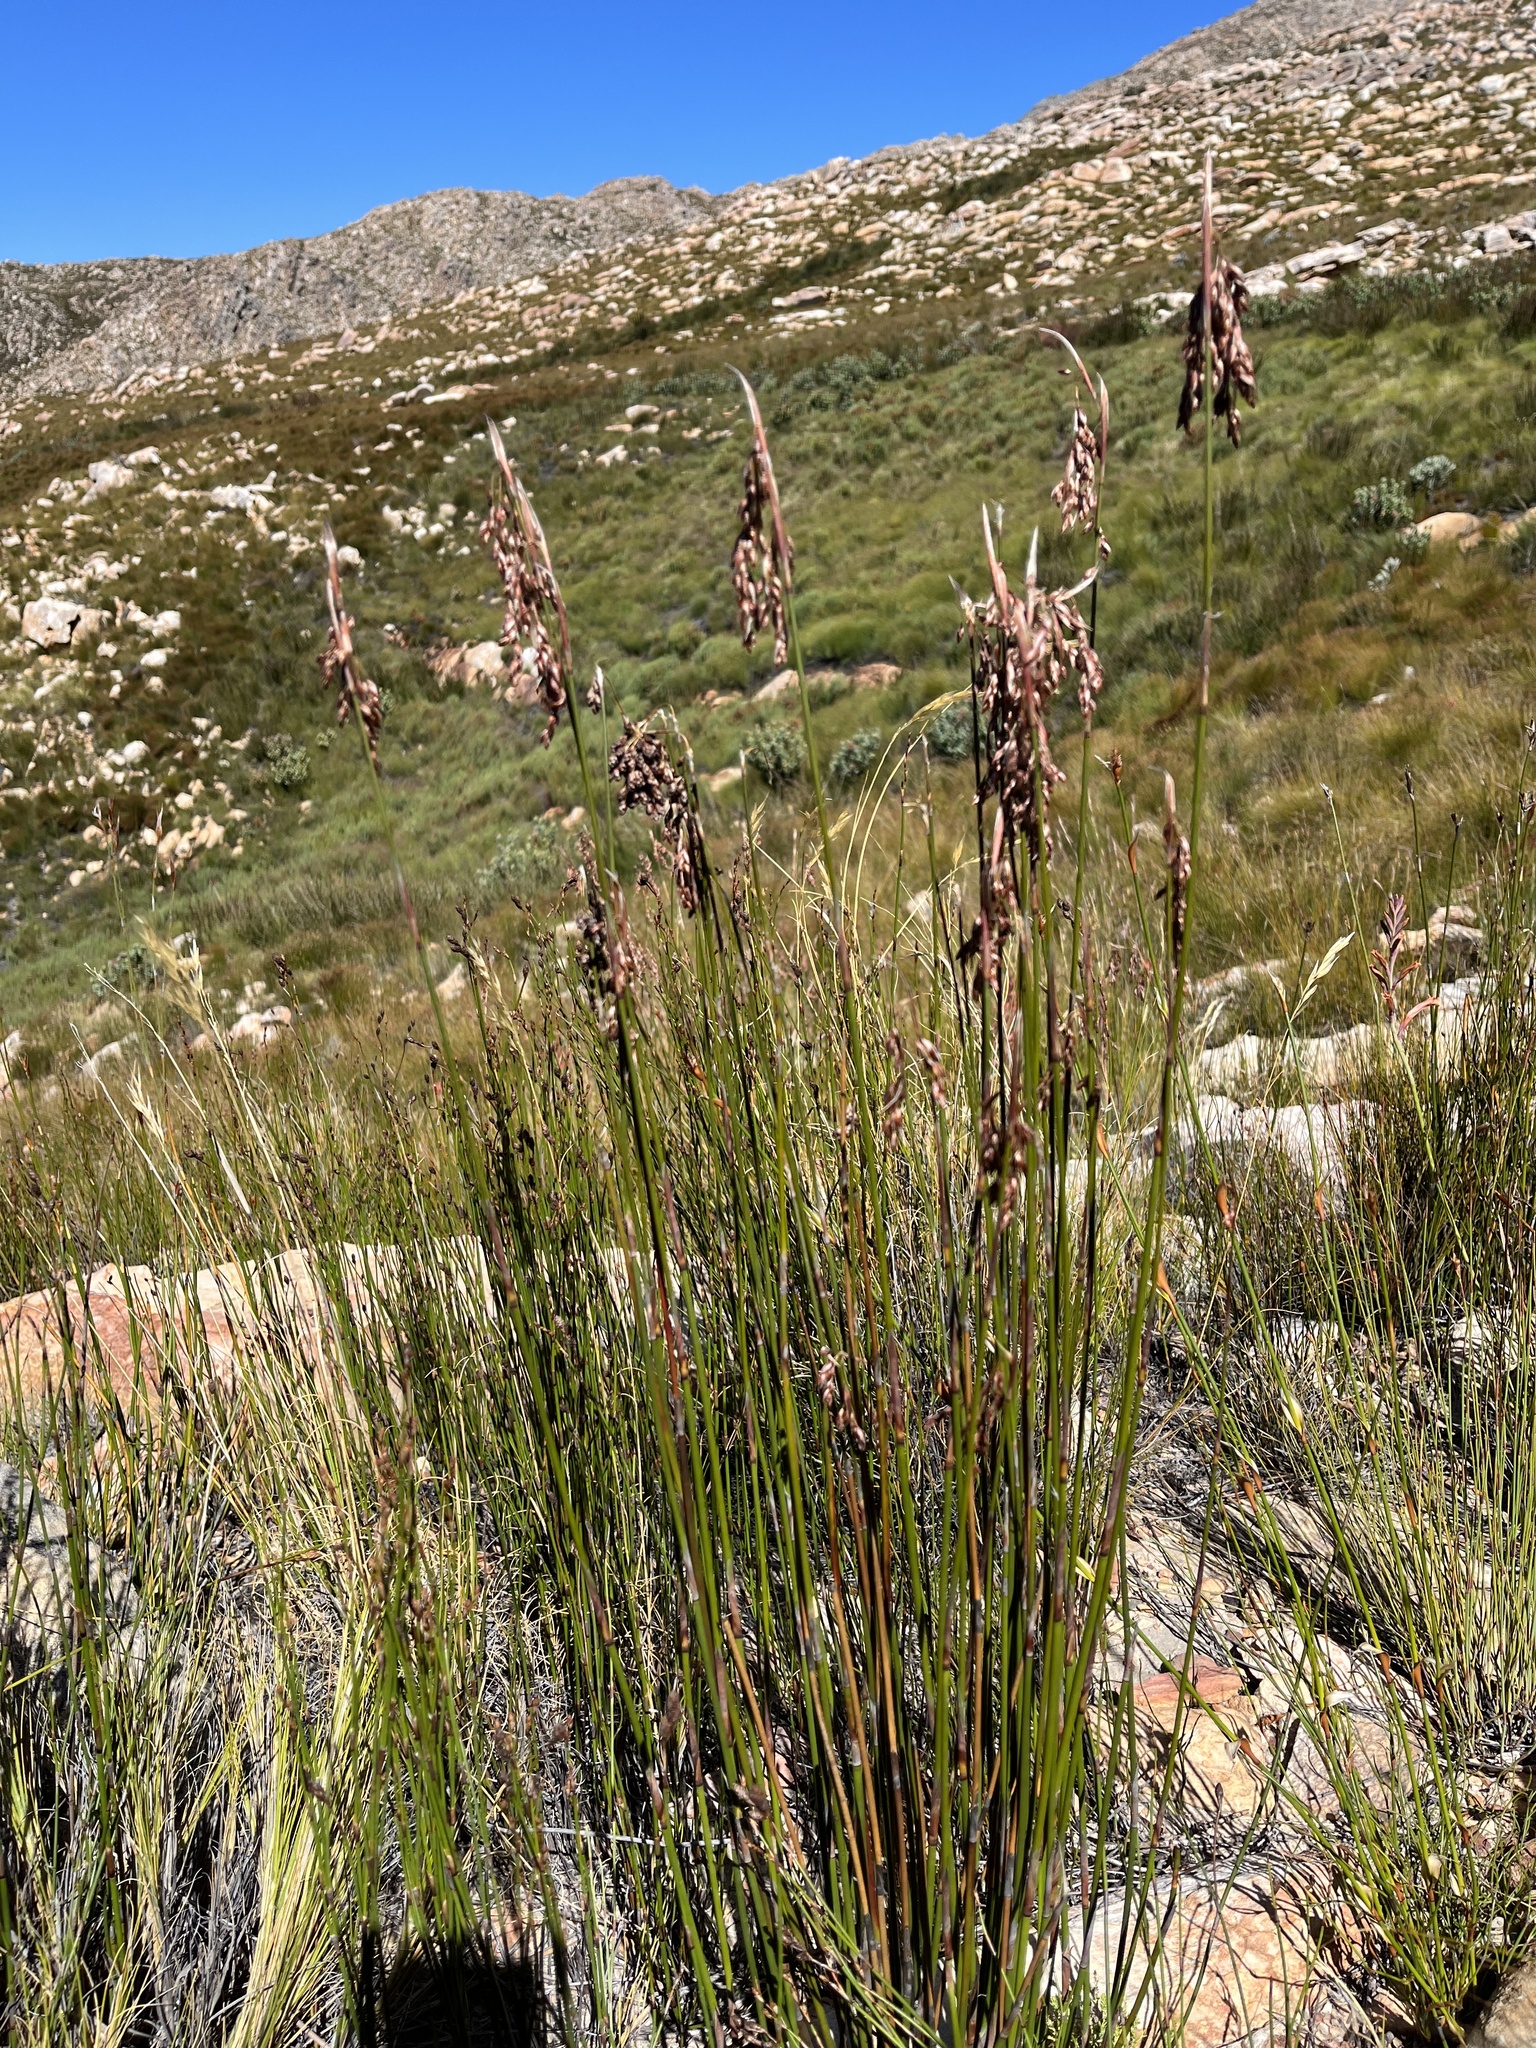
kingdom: Plantae
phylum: Tracheophyta
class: Liliopsida
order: Poales
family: Restionaceae
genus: Rhodocoma
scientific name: Rhodocoma fruticosa
